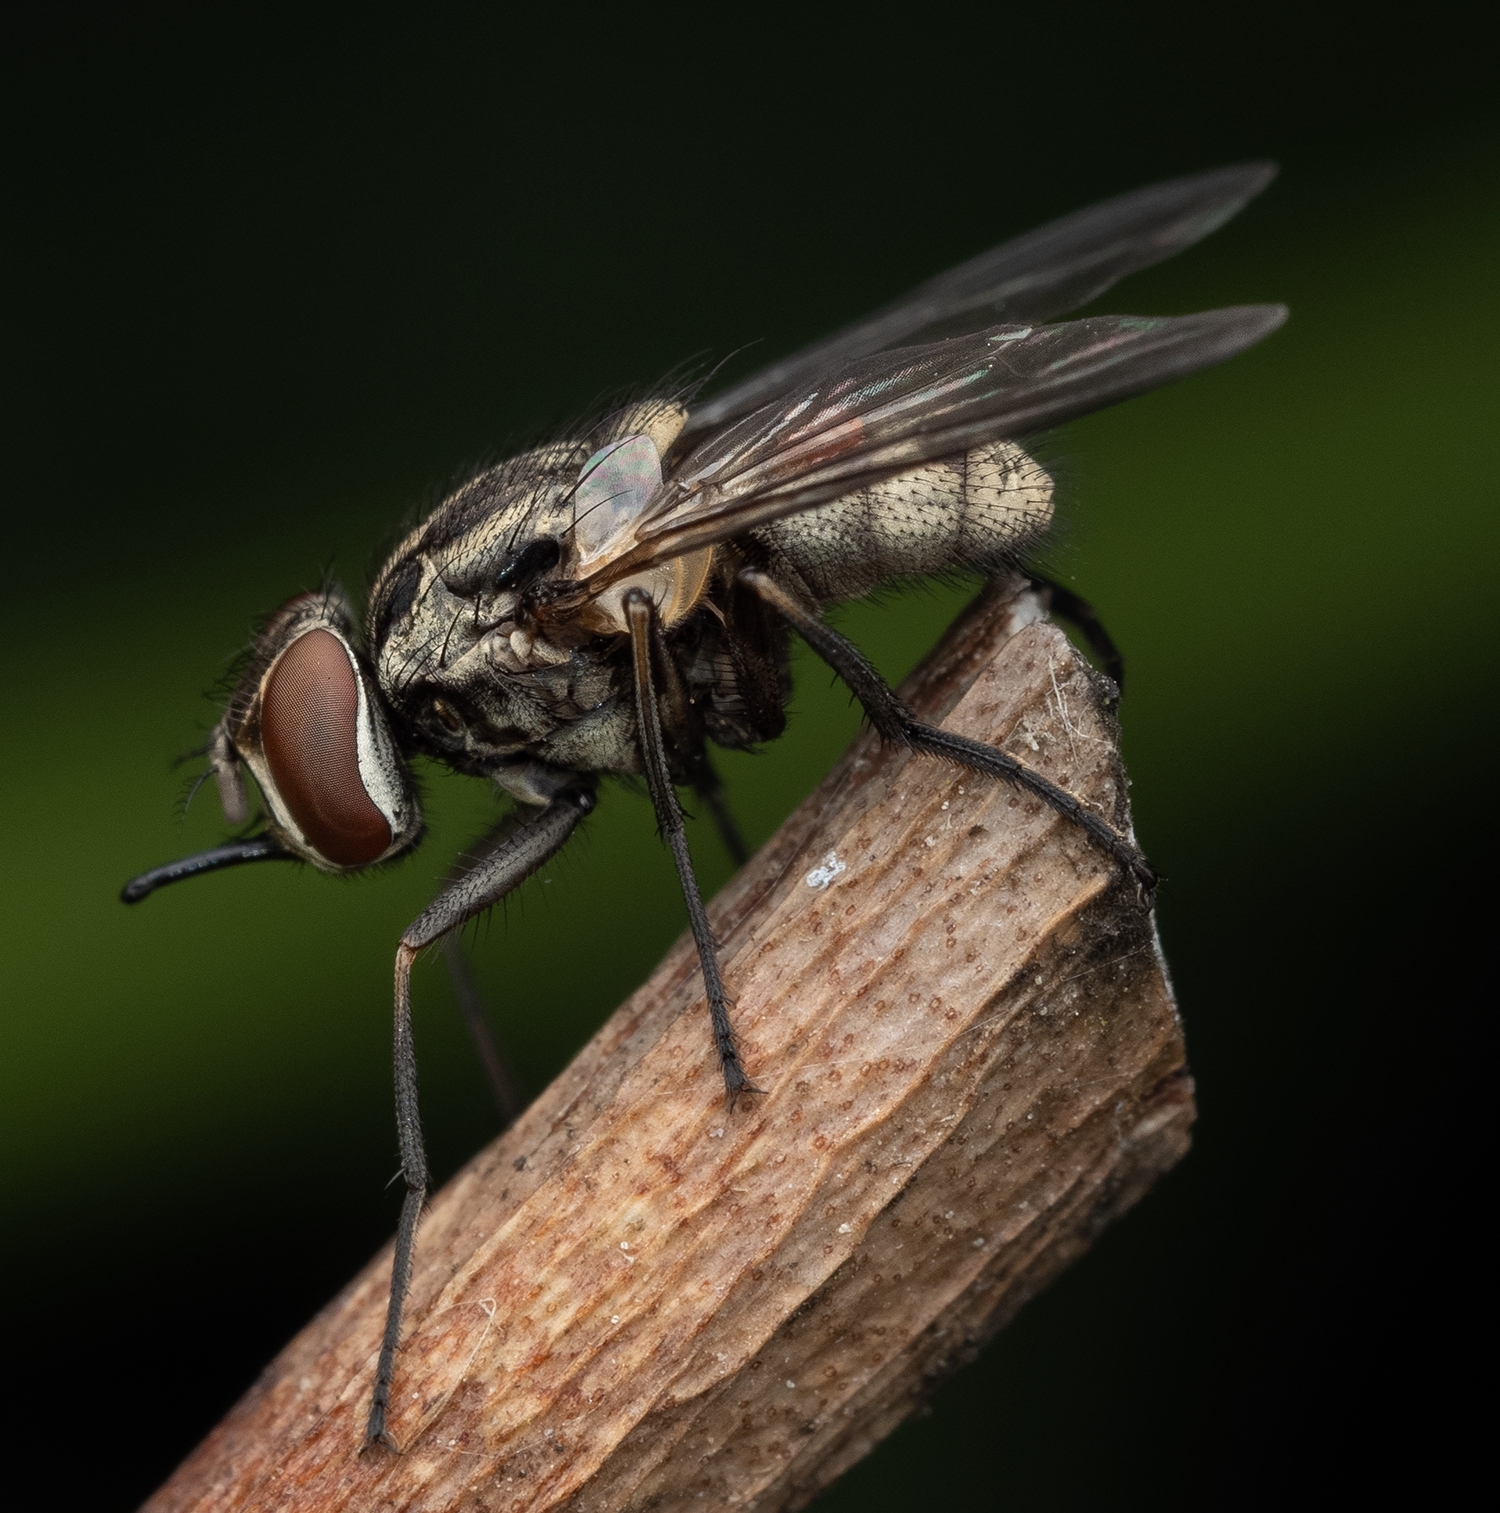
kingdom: Animalia
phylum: Arthropoda
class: Insecta
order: Diptera
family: Muscidae
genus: Stomoxys
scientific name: Stomoxys calcitrans
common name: Stable fly
